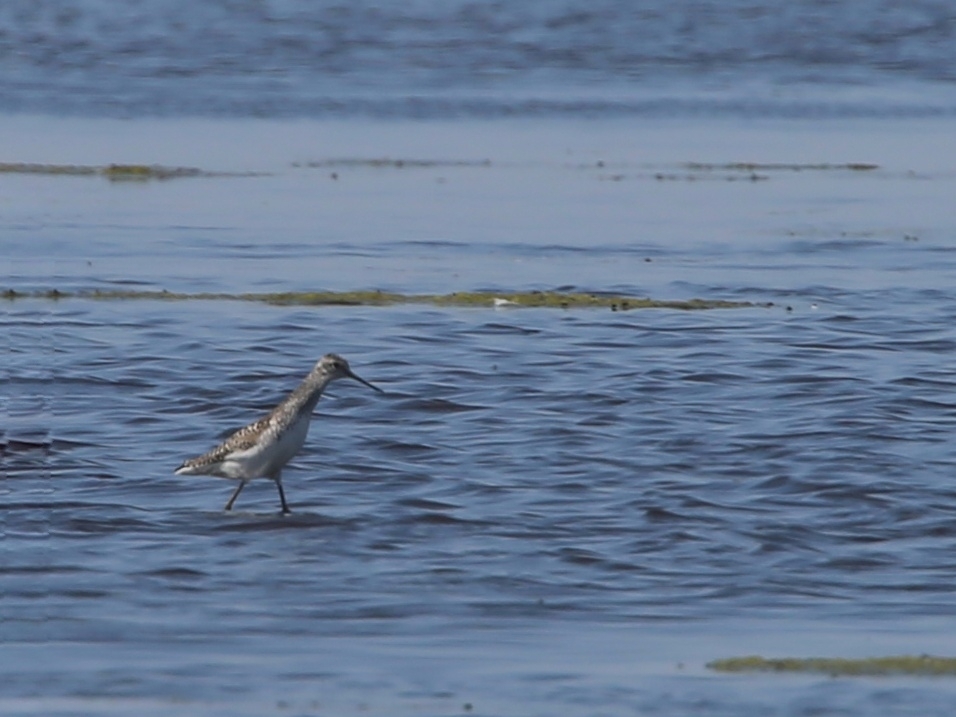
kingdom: Animalia
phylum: Chordata
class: Aves
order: Charadriiformes
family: Scolopacidae
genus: Tringa
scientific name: Tringa stagnatilis
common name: Marsh sandpiper
